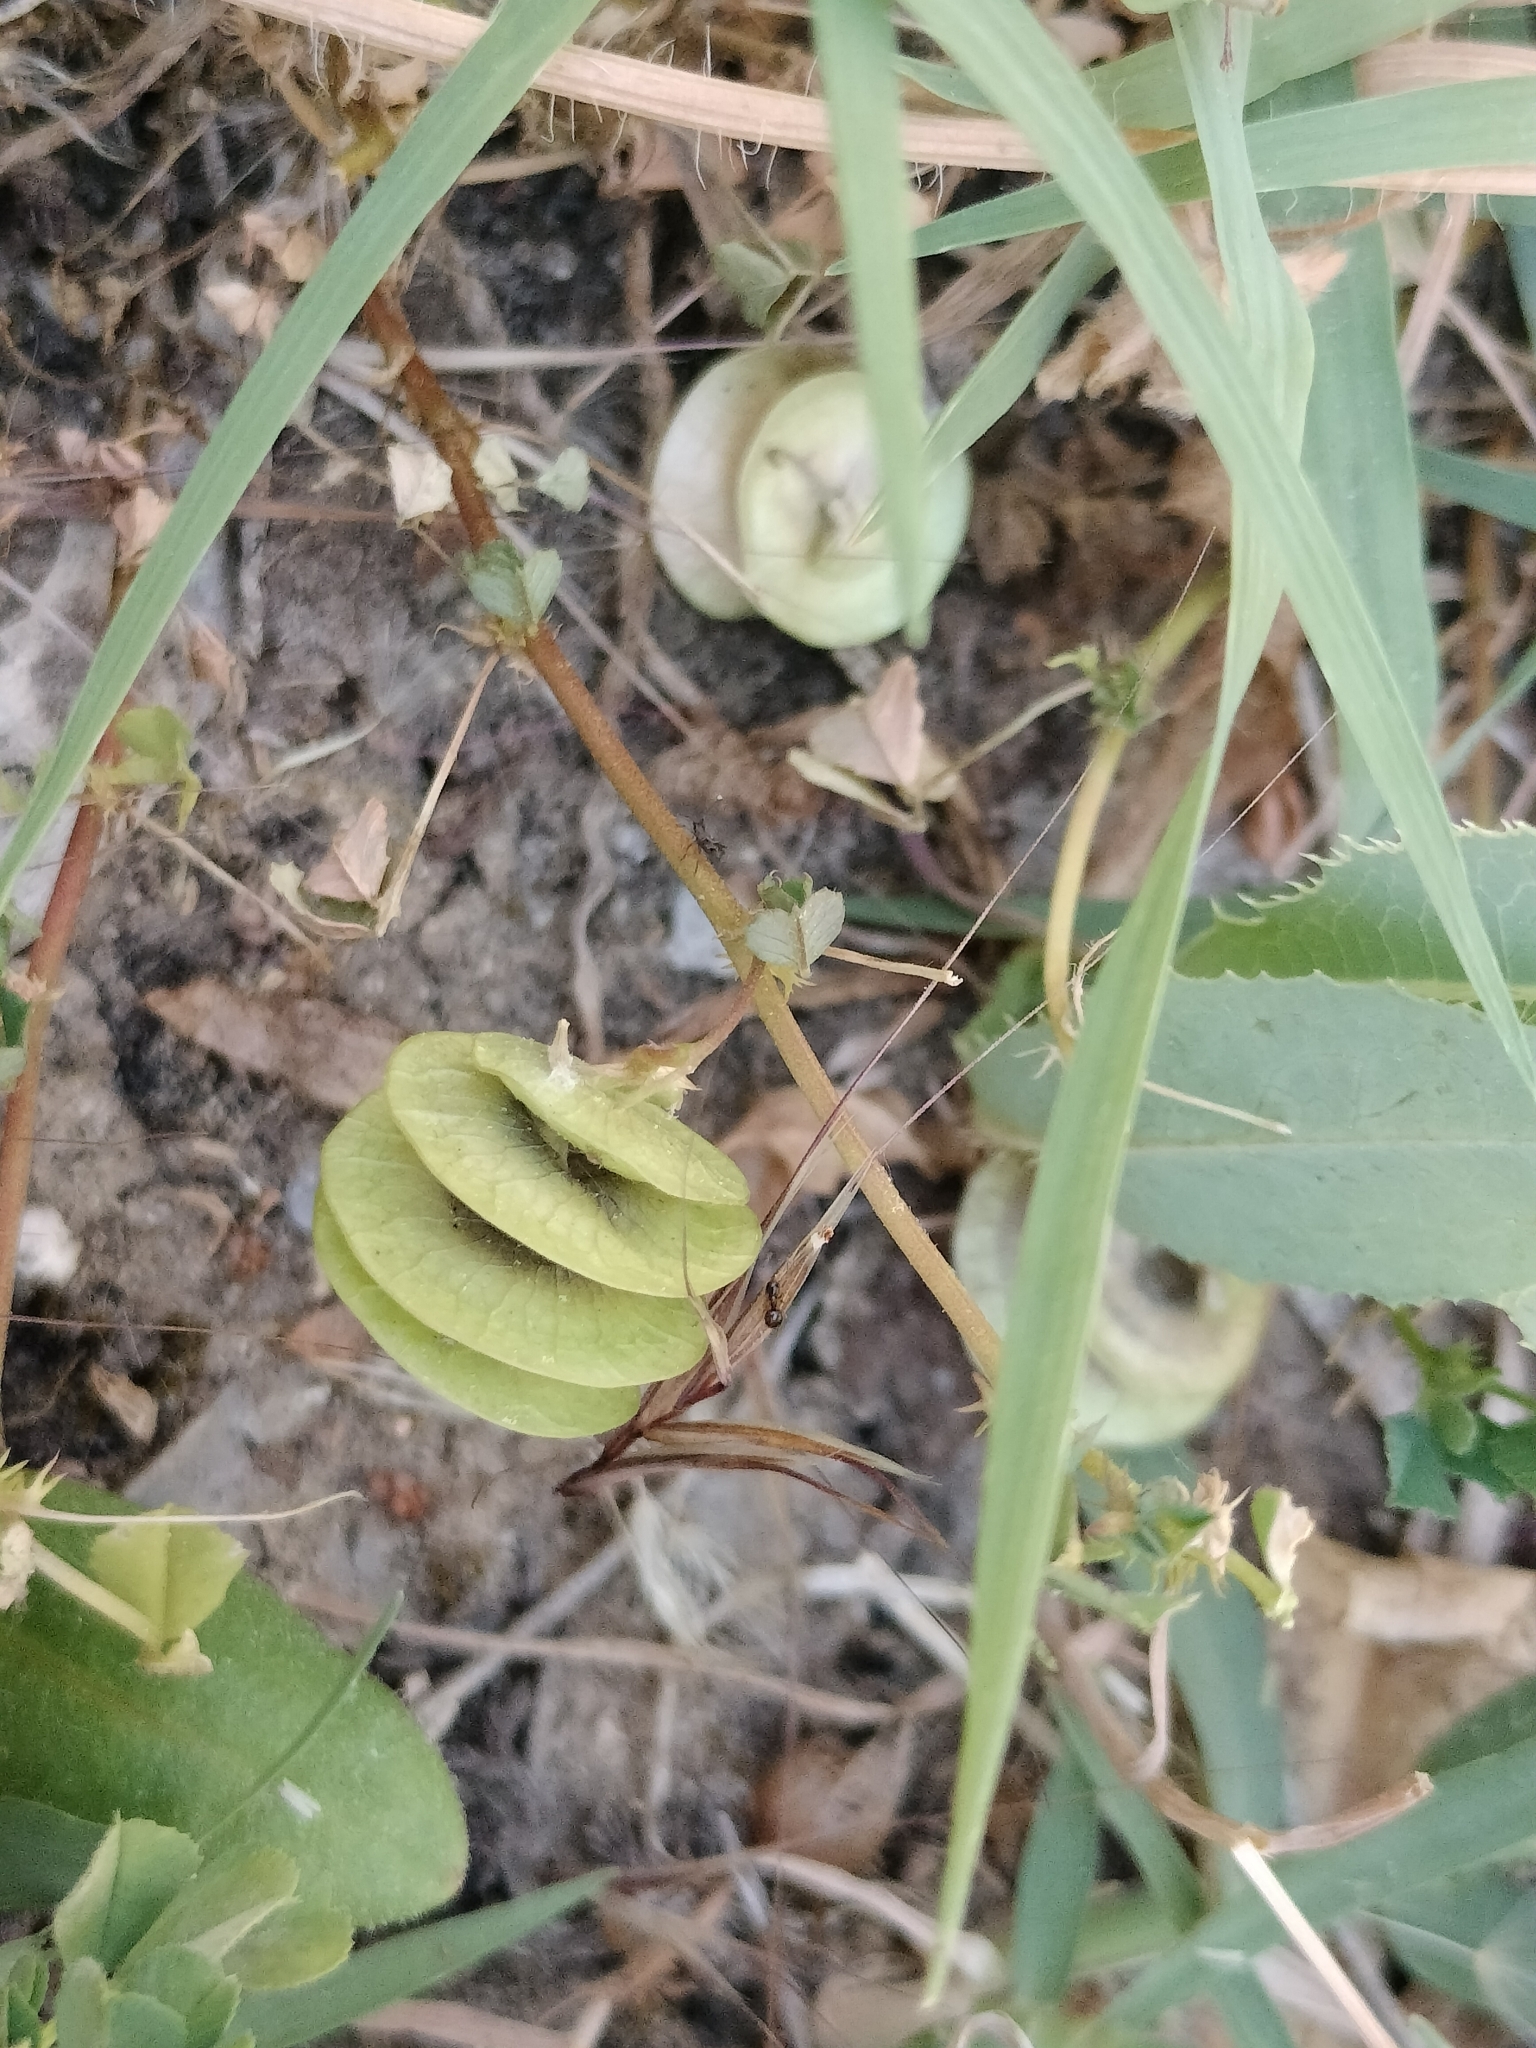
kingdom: Plantae
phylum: Tracheophyta
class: Magnoliopsida
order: Fabales
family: Fabaceae
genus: Medicago
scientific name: Medicago orbicularis
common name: Button medick
